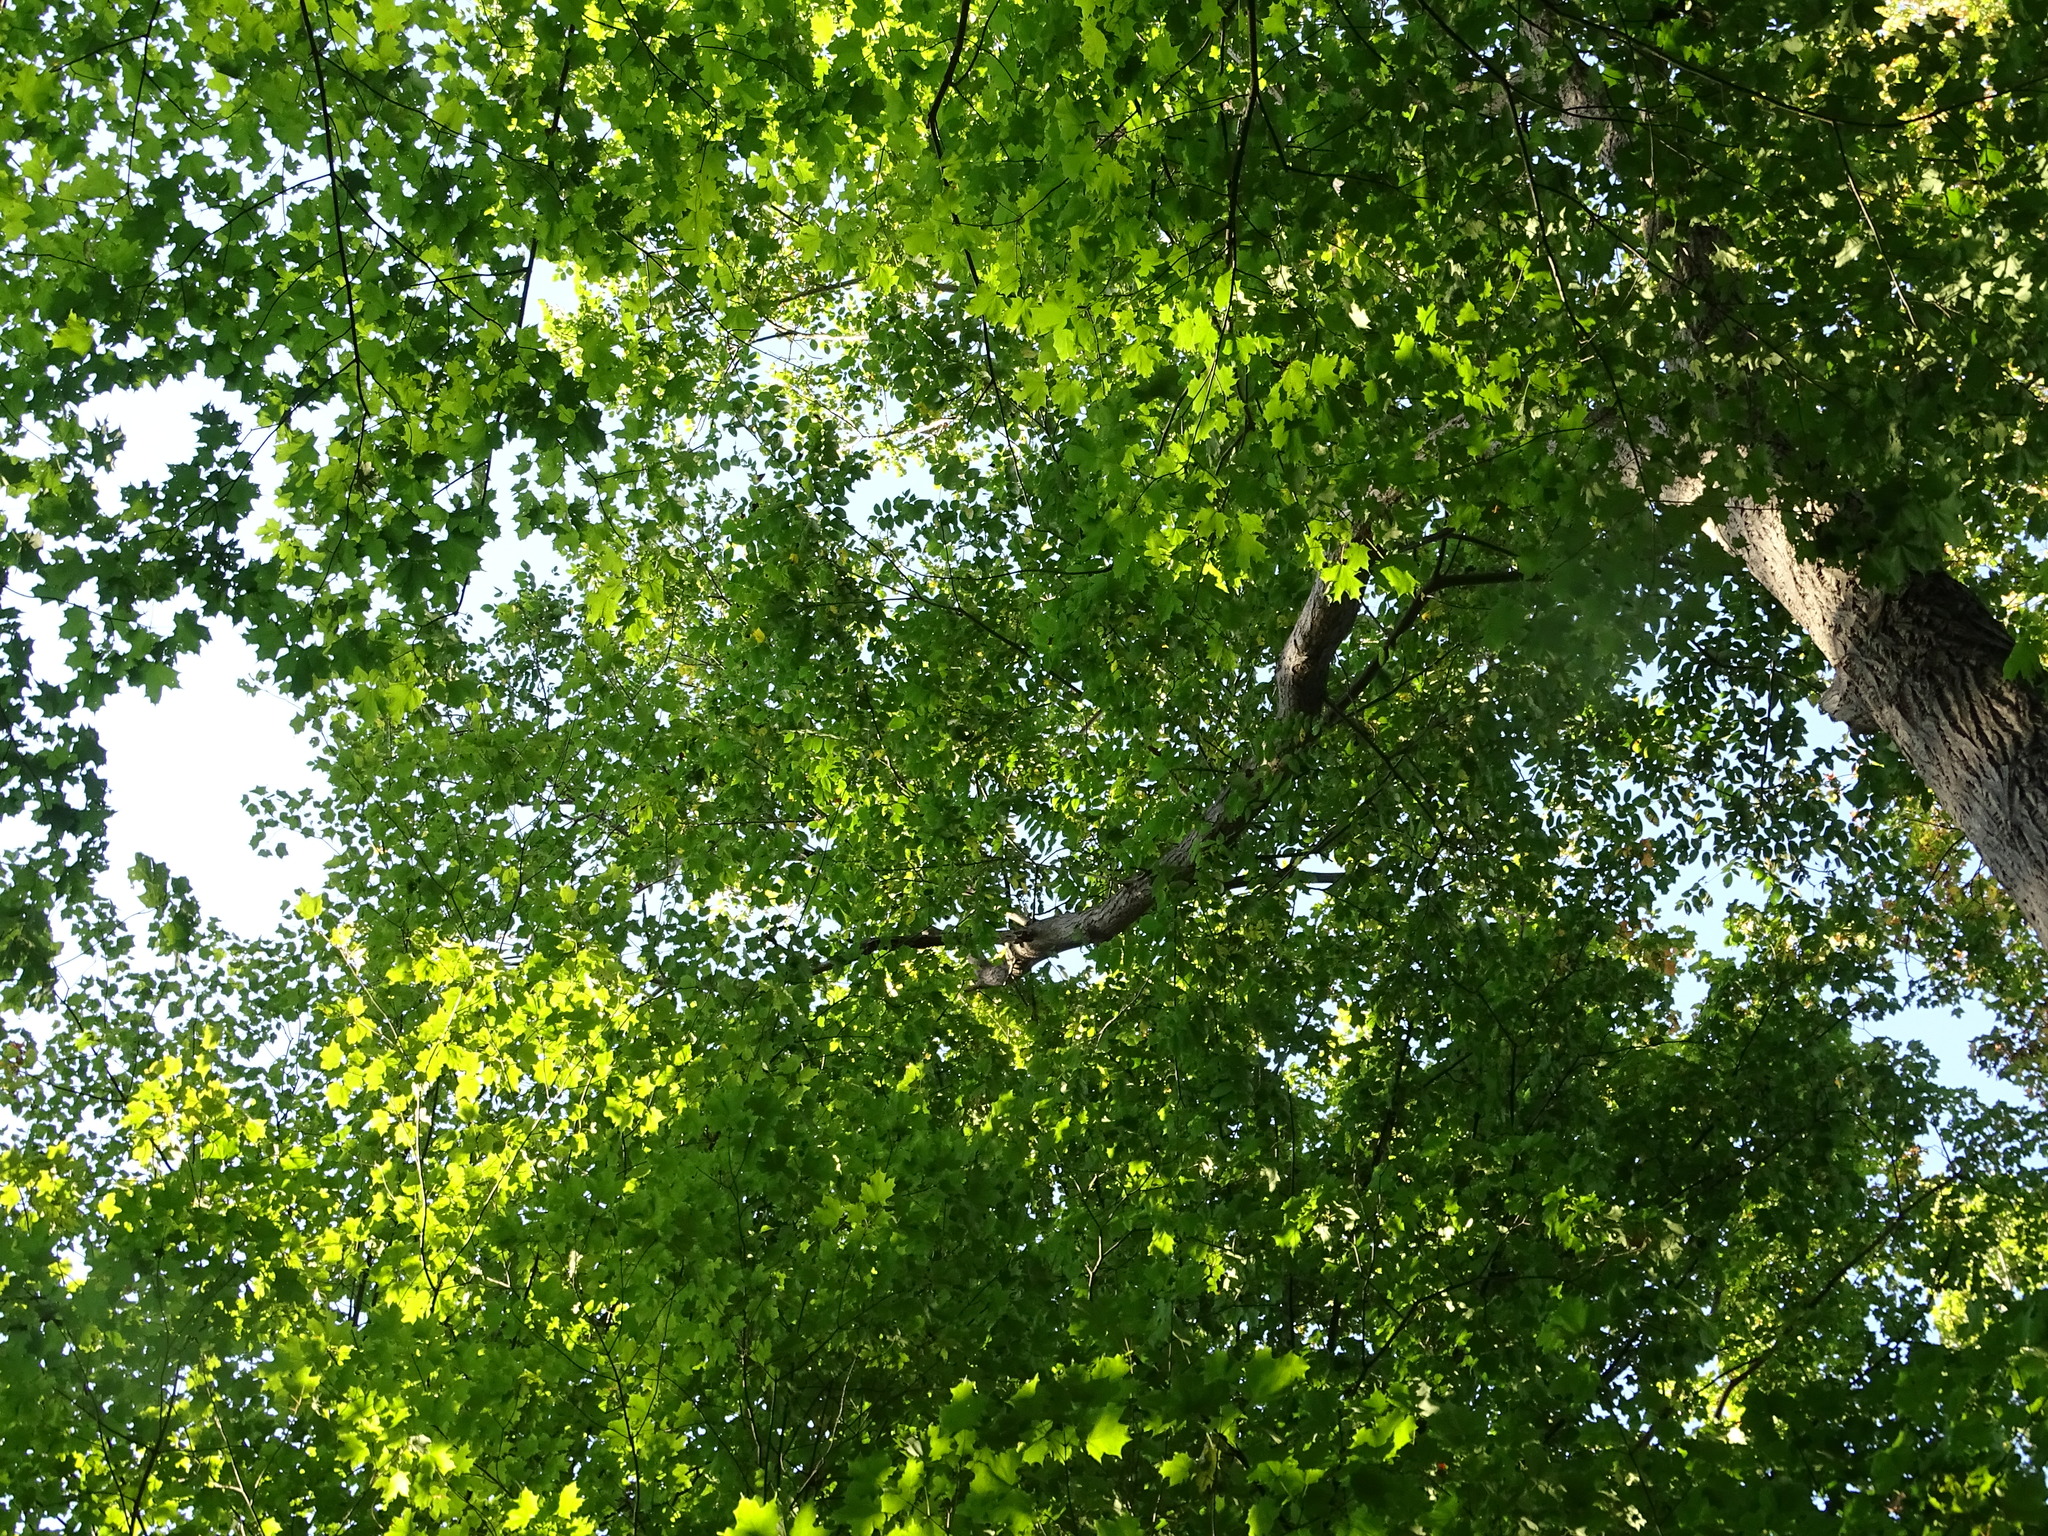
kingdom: Plantae
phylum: Tracheophyta
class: Magnoliopsida
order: Fagales
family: Juglandaceae
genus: Juglans
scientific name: Juglans cinerea
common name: Butternut
